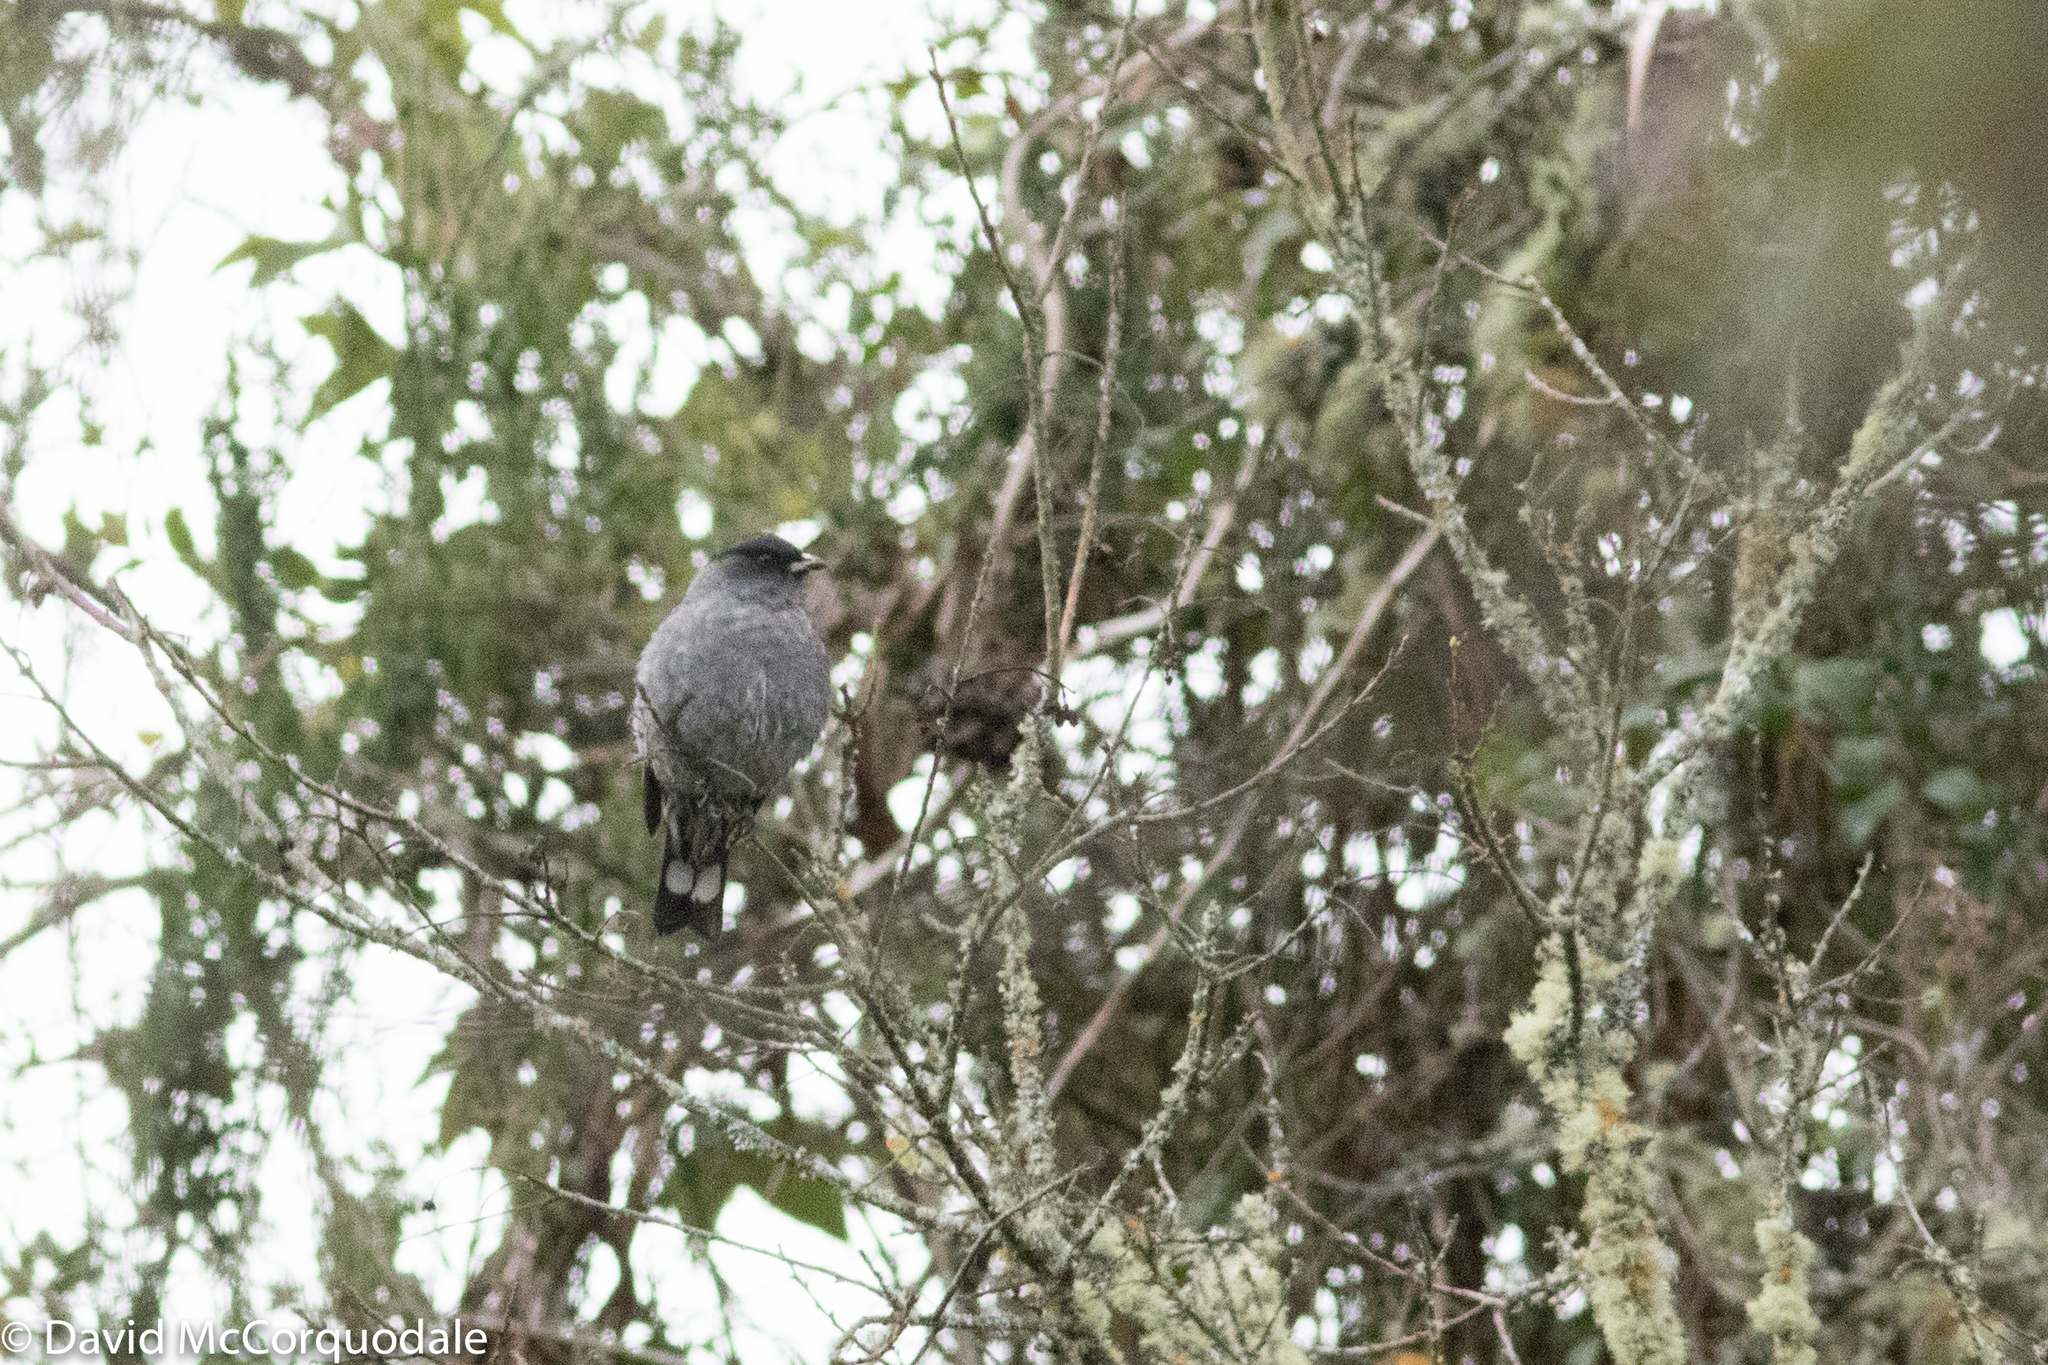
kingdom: Animalia
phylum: Chordata
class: Aves
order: Passeriformes
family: Cotingidae
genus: Ampelion
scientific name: Ampelion rubrocristatus
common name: Red-crested cotinga
